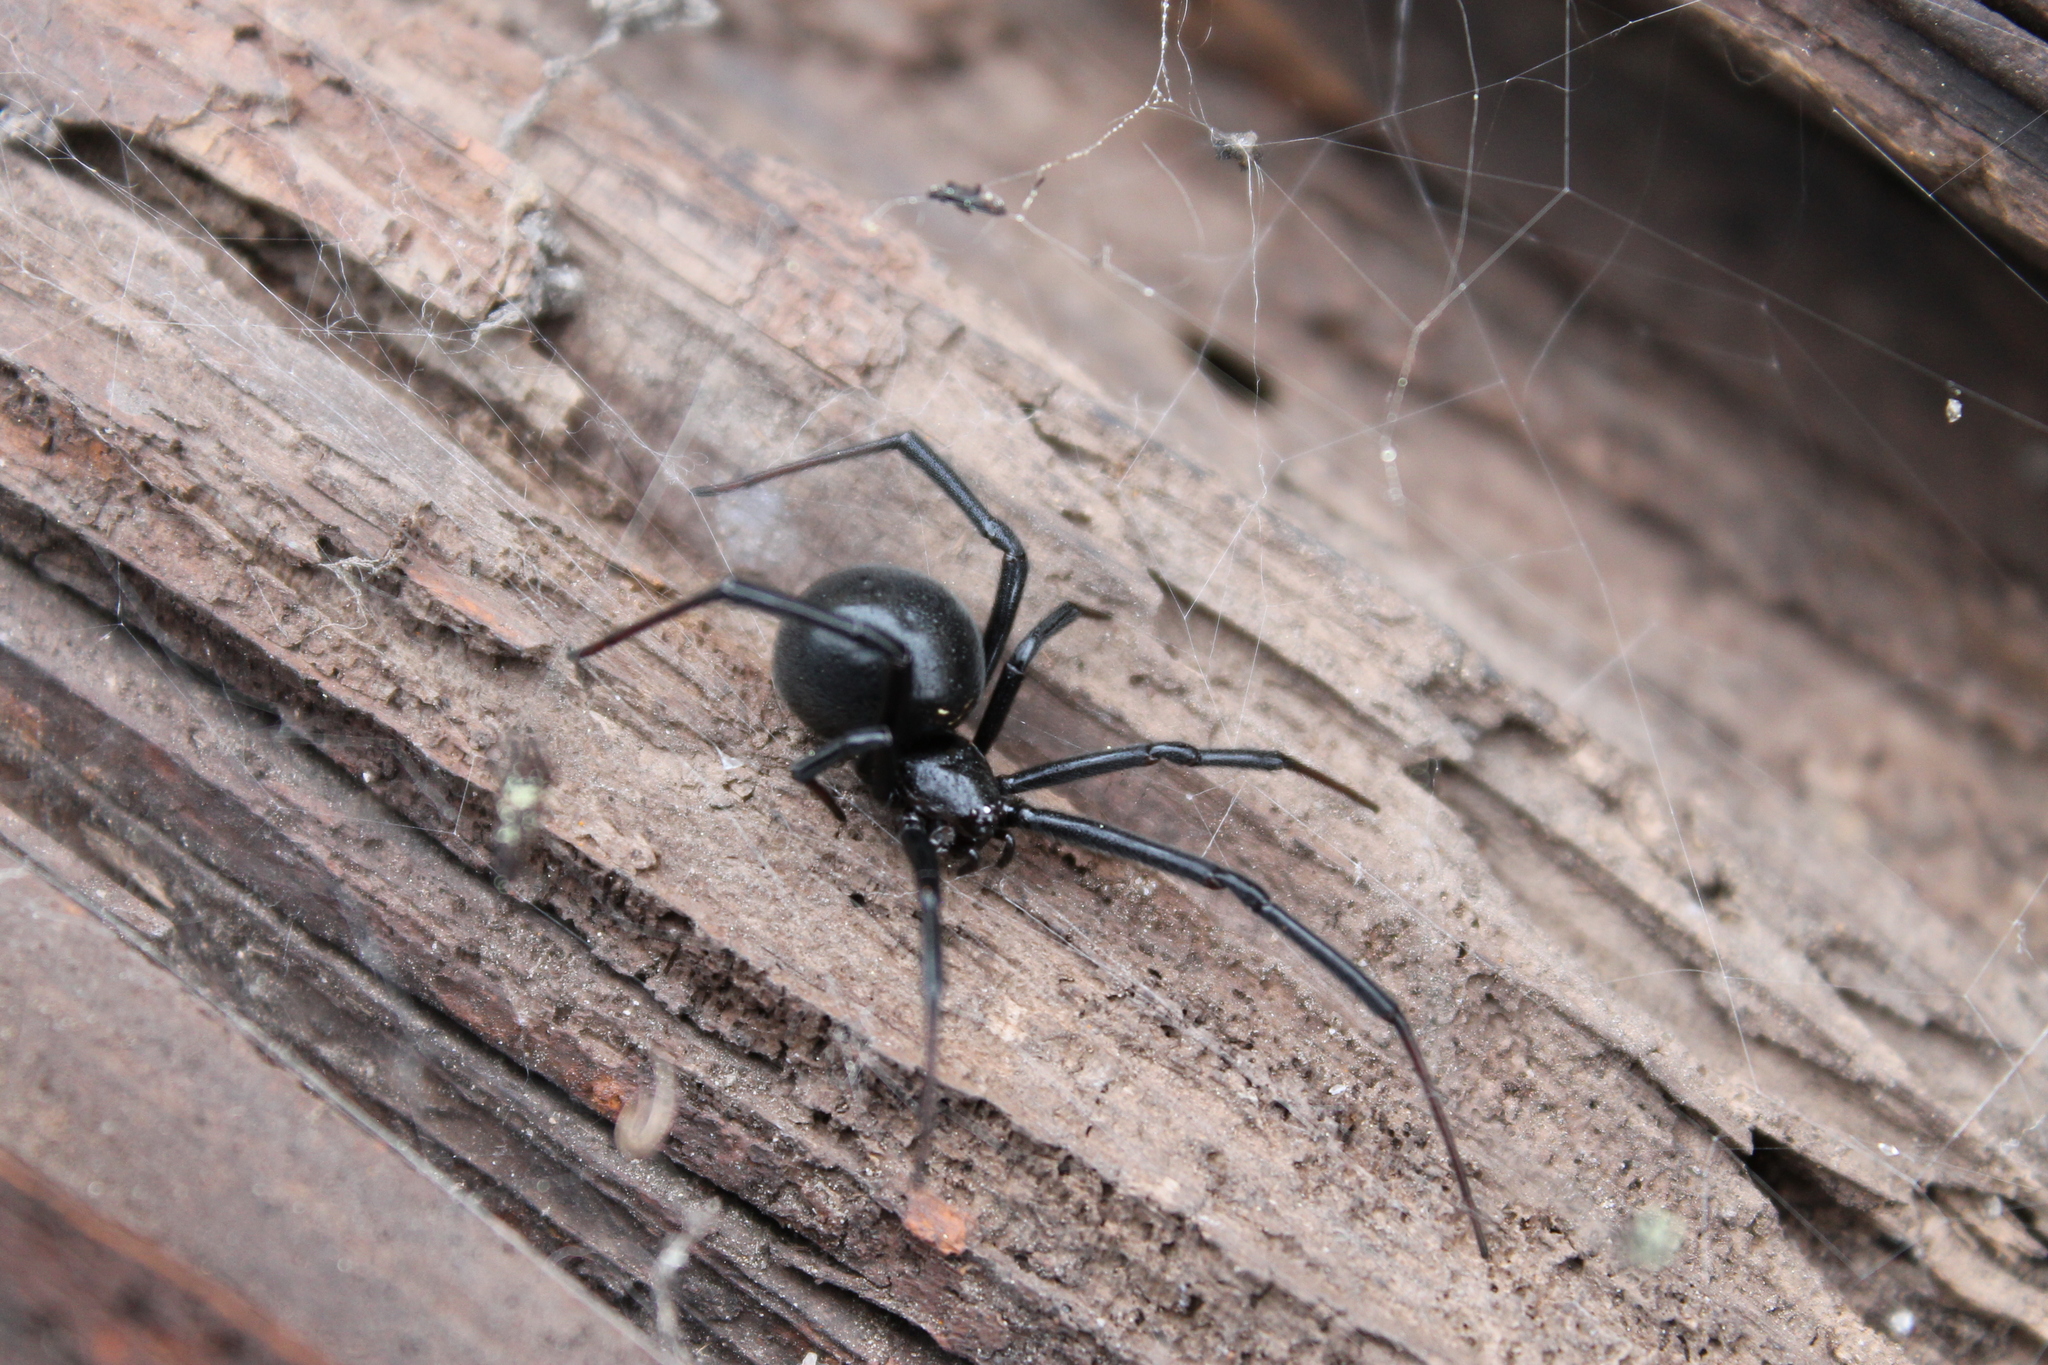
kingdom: Animalia
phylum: Arthropoda
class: Arachnida
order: Araneae
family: Theridiidae
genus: Latrodectus
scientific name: Latrodectus hesperus
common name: Western black widow
